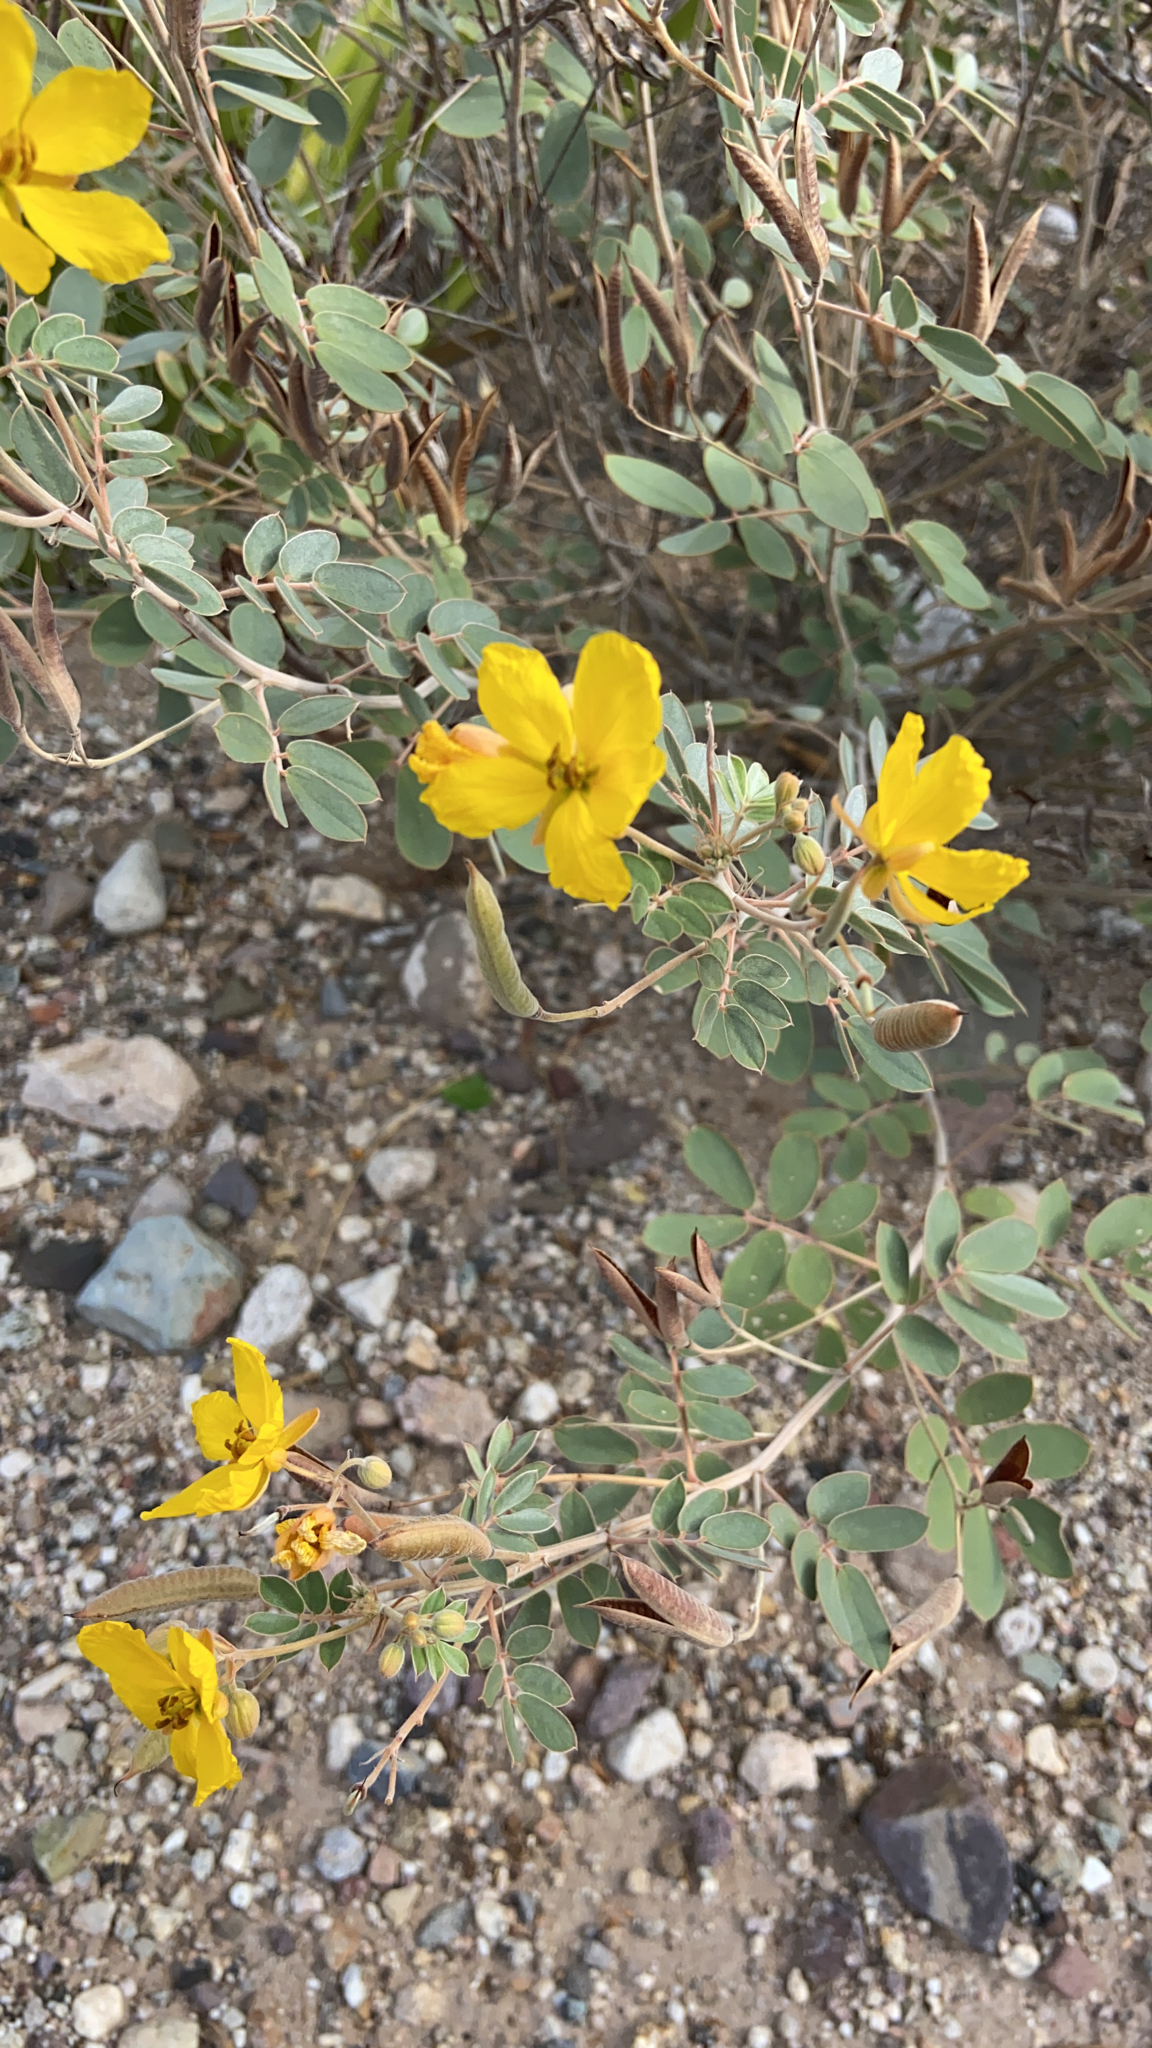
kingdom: Plantae
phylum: Tracheophyta
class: Magnoliopsida
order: Fabales
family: Fabaceae
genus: Senna
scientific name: Senna covesii
